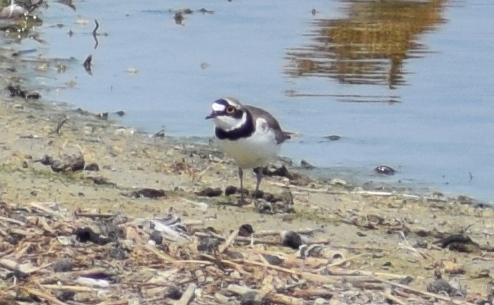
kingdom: Animalia
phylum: Chordata
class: Aves
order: Charadriiformes
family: Charadriidae
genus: Charadrius
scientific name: Charadrius dubius
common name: Little ringed plover
